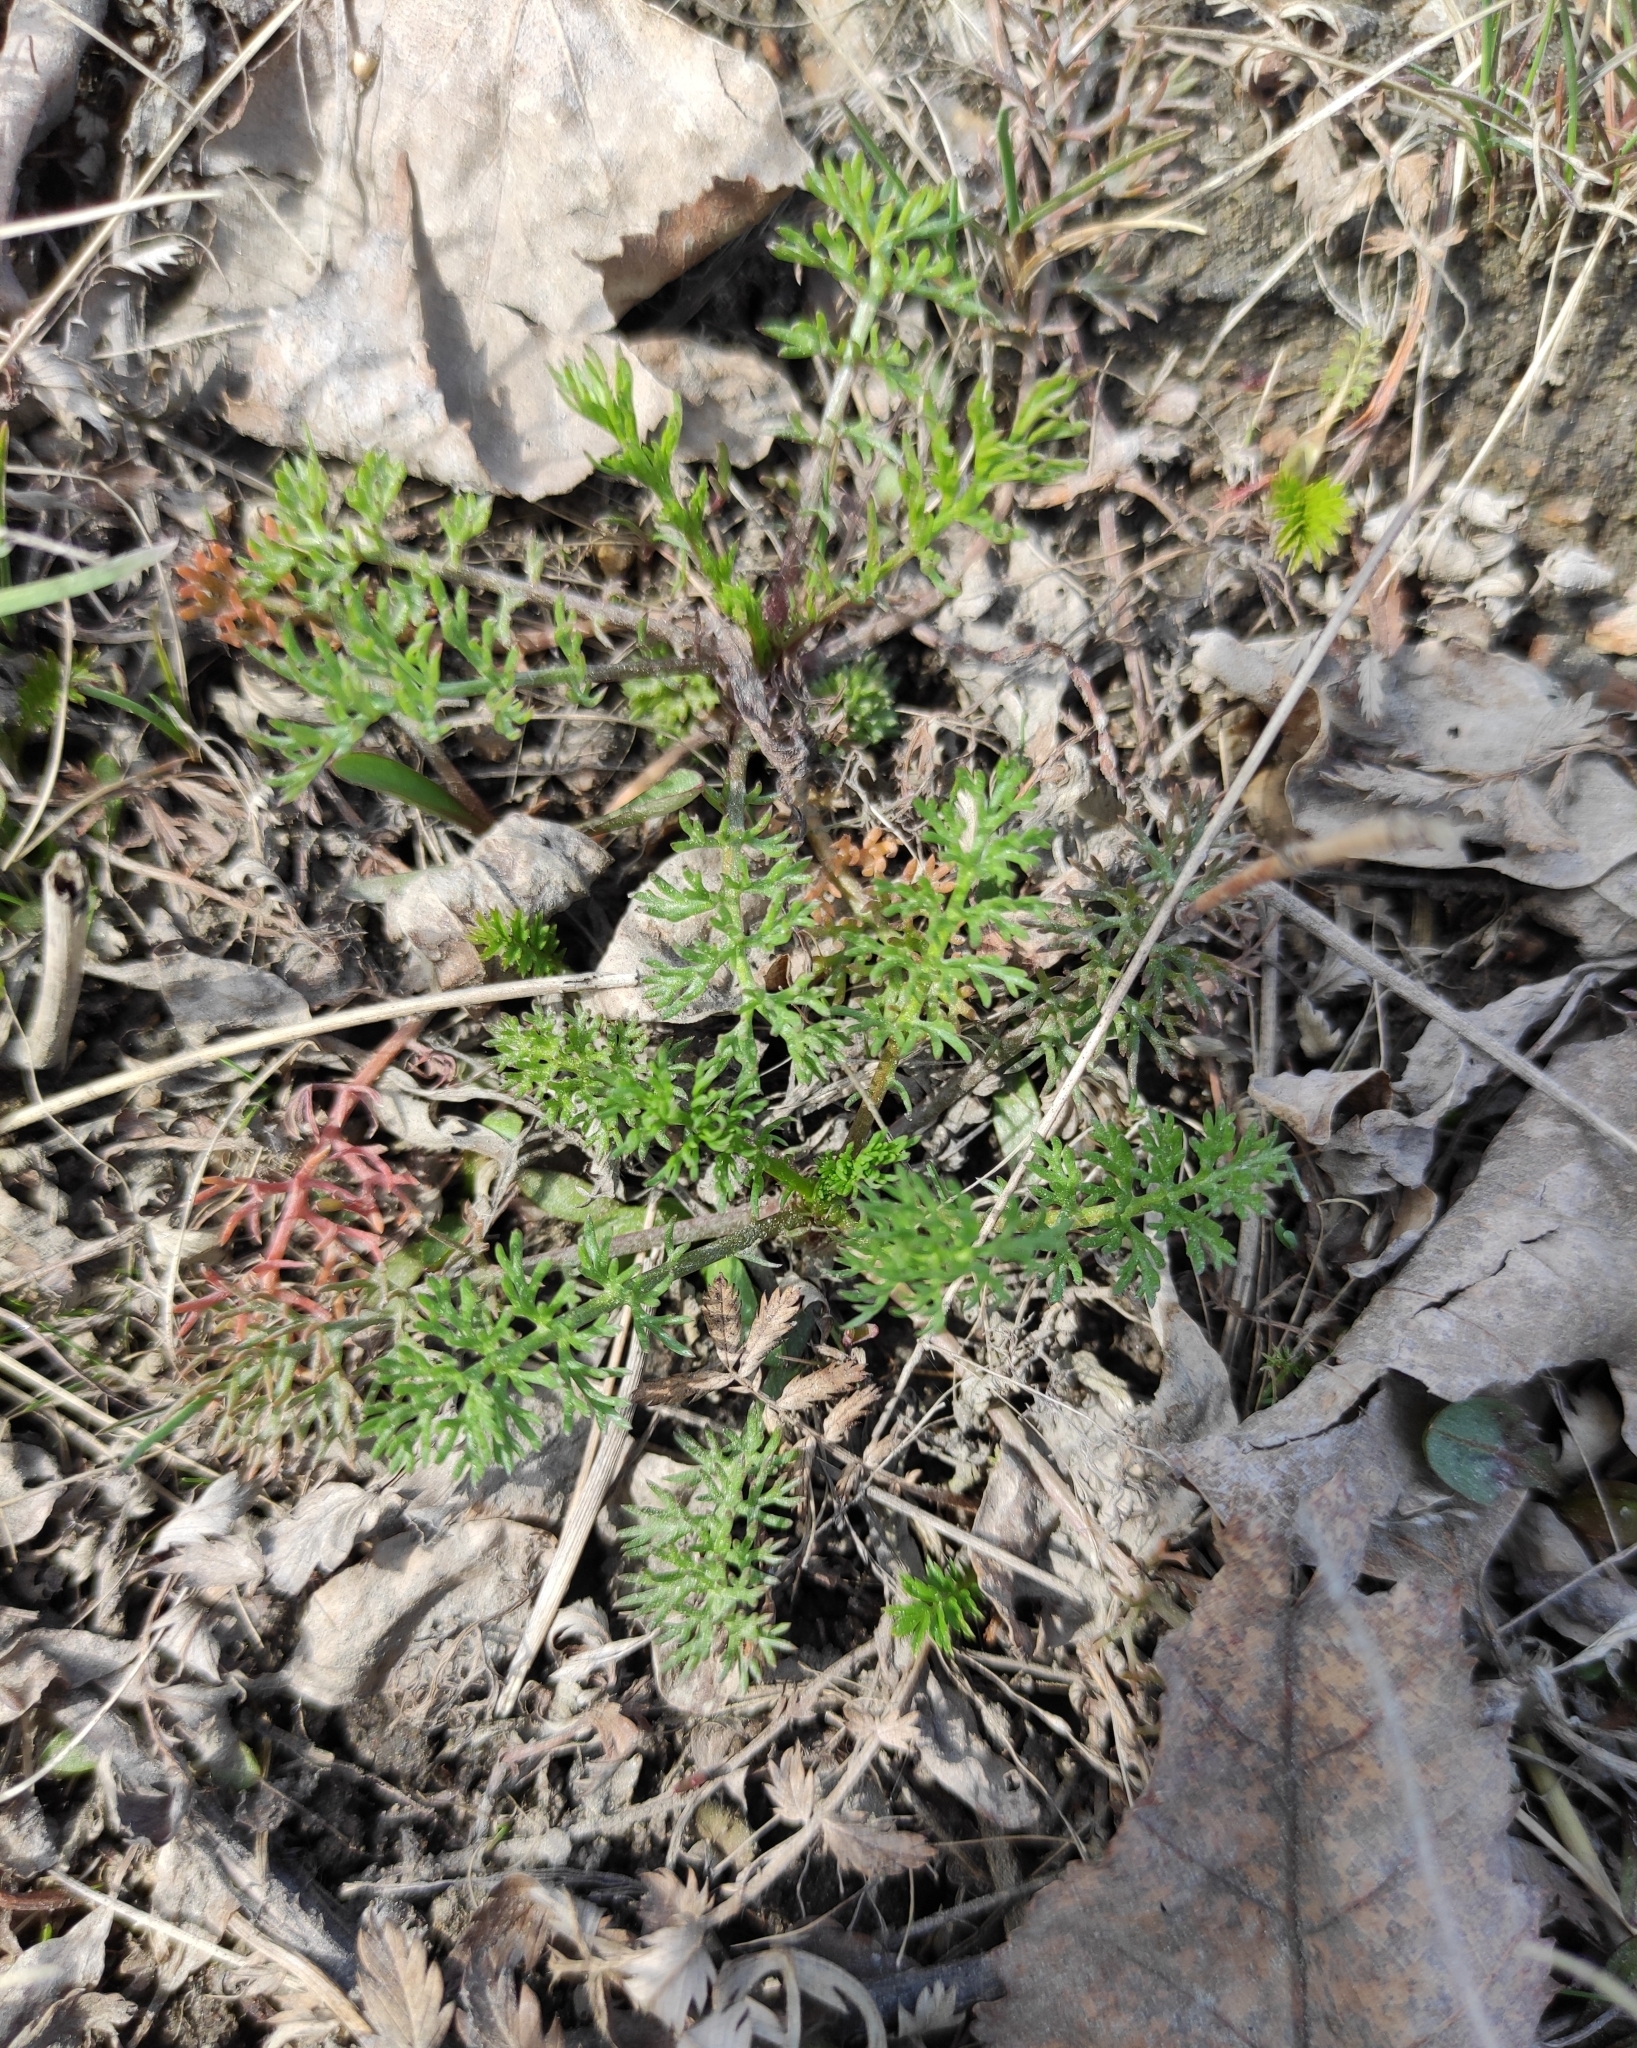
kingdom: Plantae
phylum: Tracheophyta
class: Magnoliopsida
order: Asterales
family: Asteraceae
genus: Tripleurospermum
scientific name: Tripleurospermum inodorum
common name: Scentless mayweed
